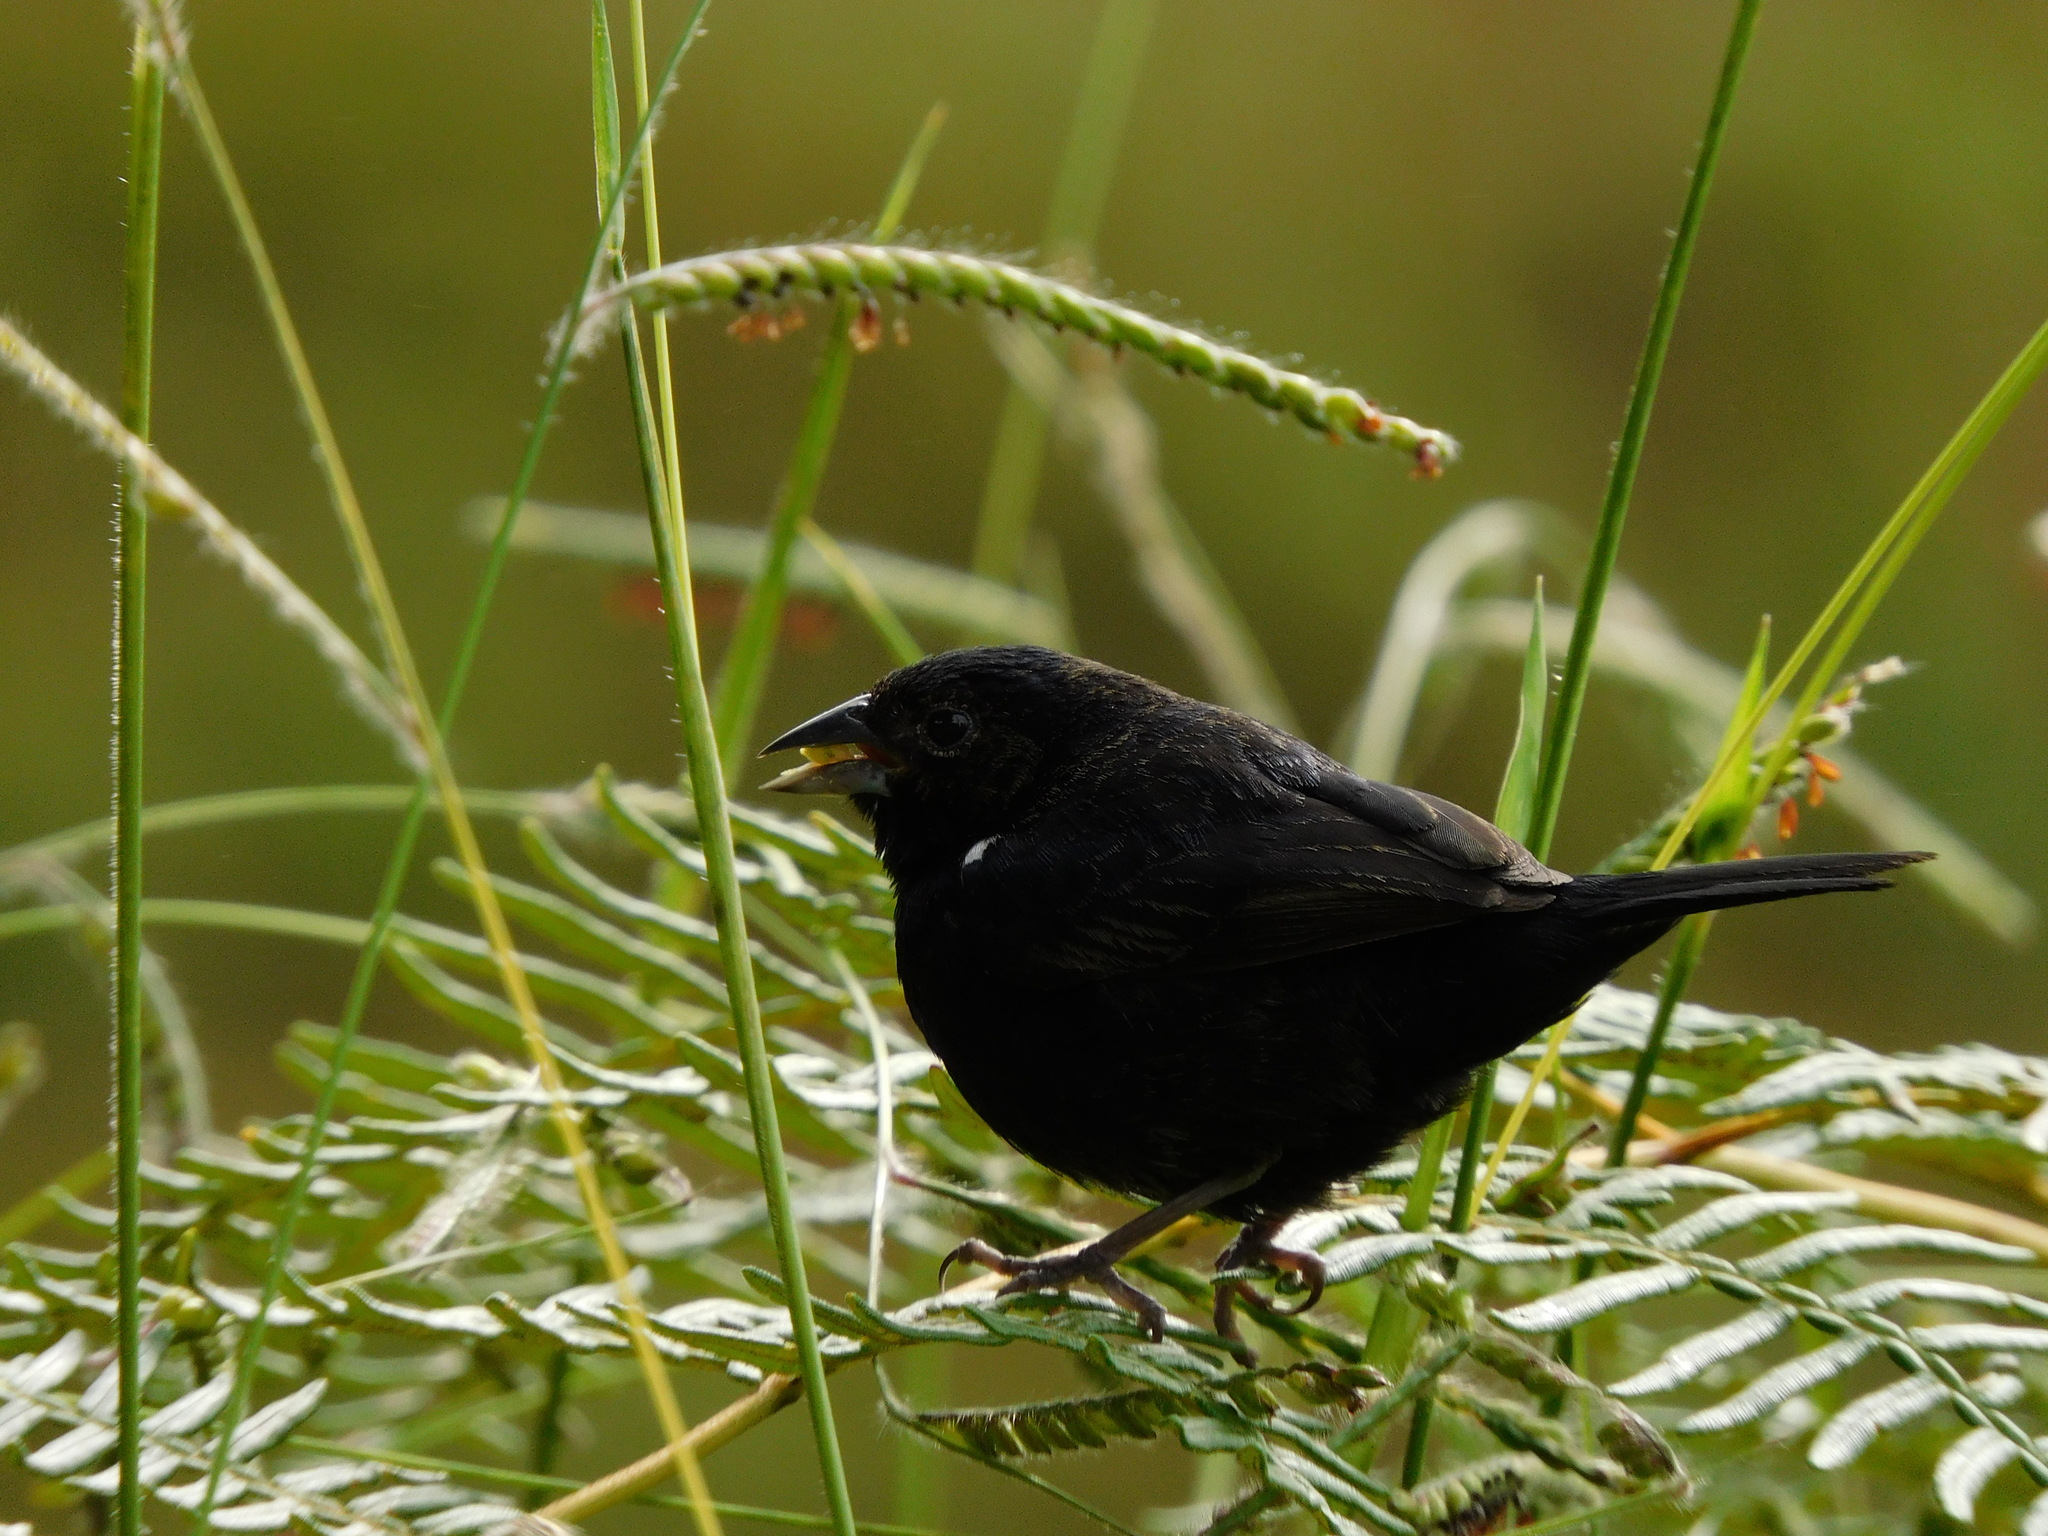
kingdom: Animalia
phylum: Chordata
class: Aves
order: Passeriformes
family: Thraupidae
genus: Volatinia
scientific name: Volatinia jacarina
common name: Blue-black grassquit
